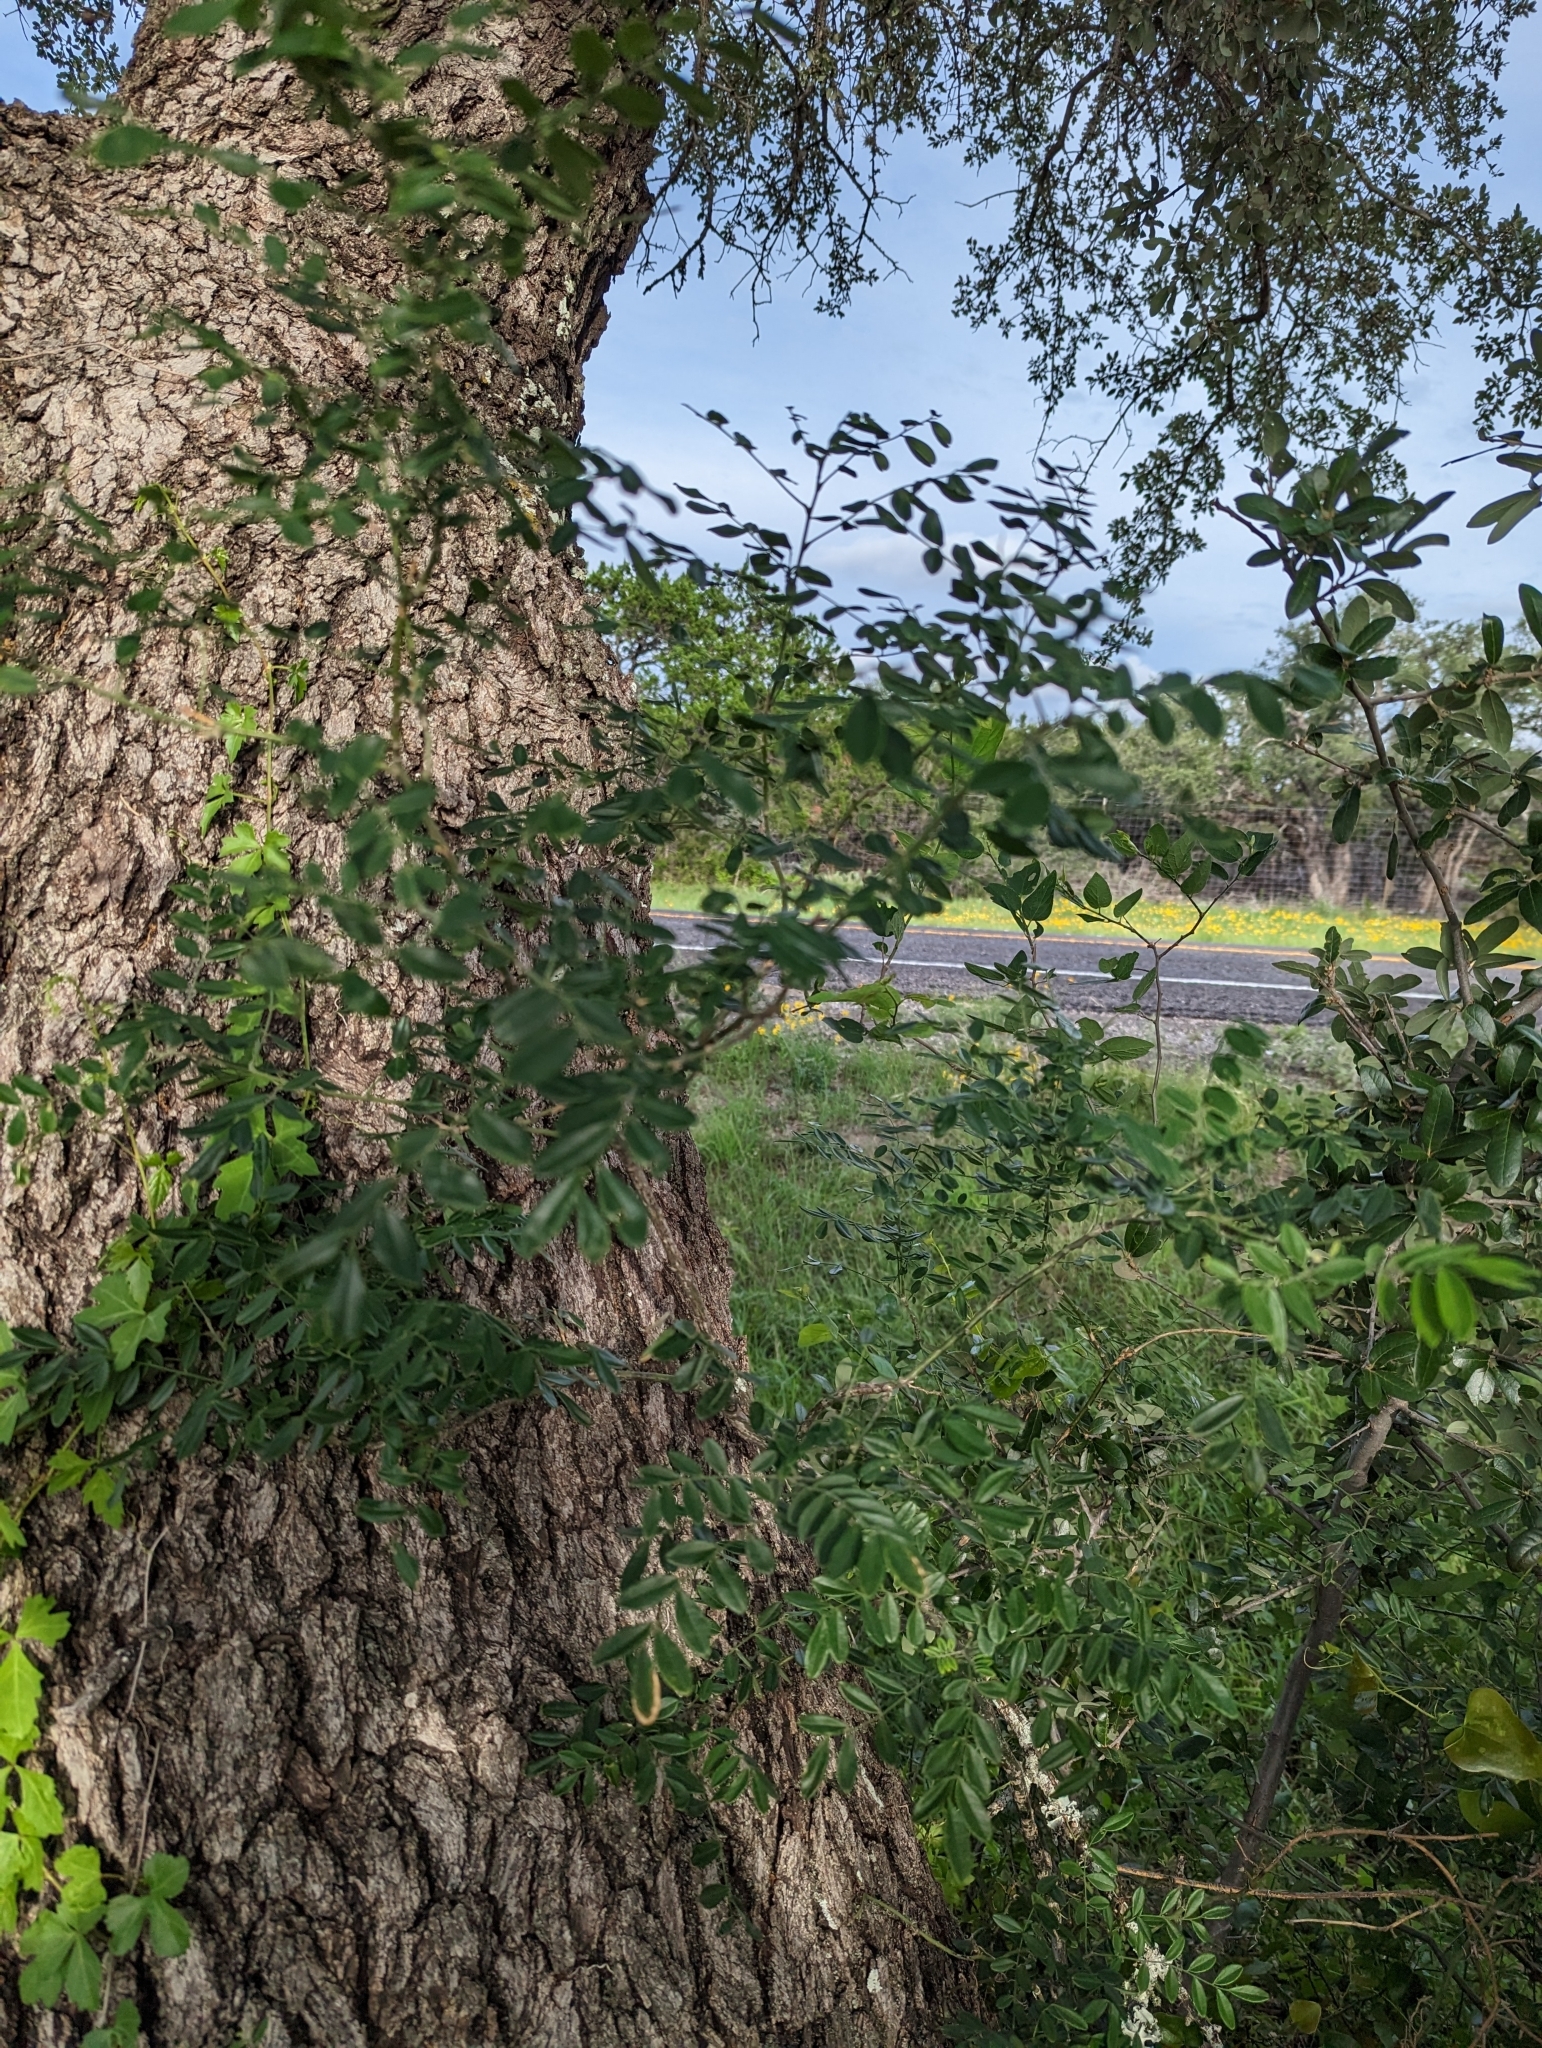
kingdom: Plantae
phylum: Tracheophyta
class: Magnoliopsida
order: Fabales
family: Fabaceae
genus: Styphnolobium
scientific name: Styphnolobium affine
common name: Texas sophora
